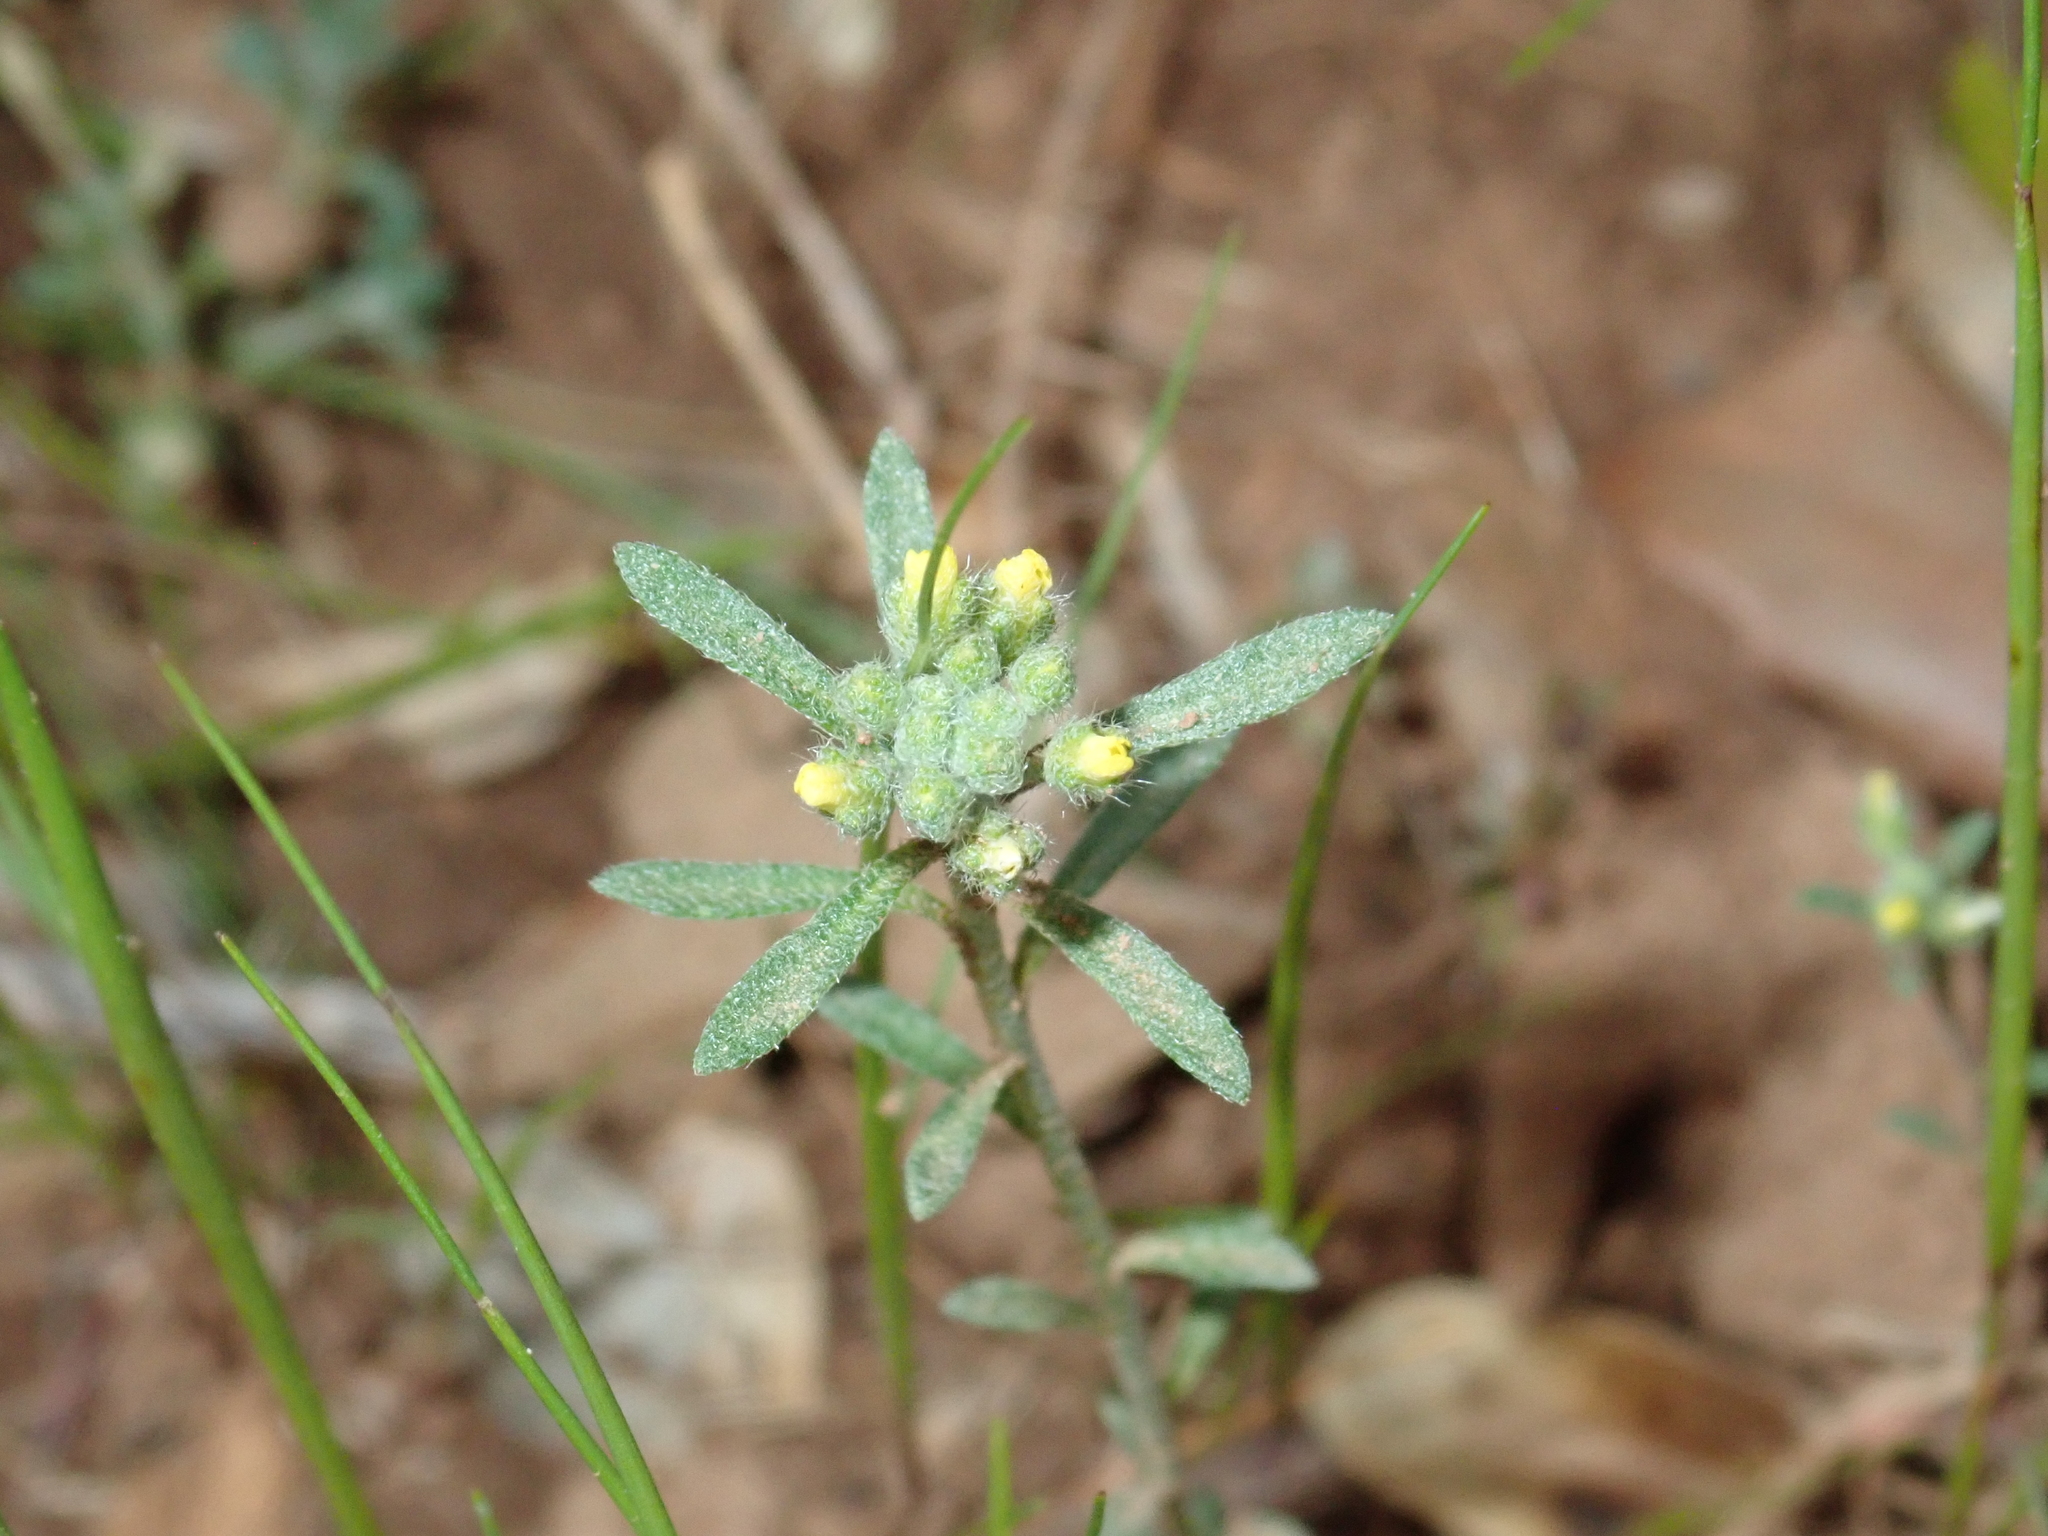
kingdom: Plantae
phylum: Tracheophyta
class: Magnoliopsida
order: Brassicales
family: Brassicaceae
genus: Alyssum
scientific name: Alyssum alyssoides
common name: Small alison
